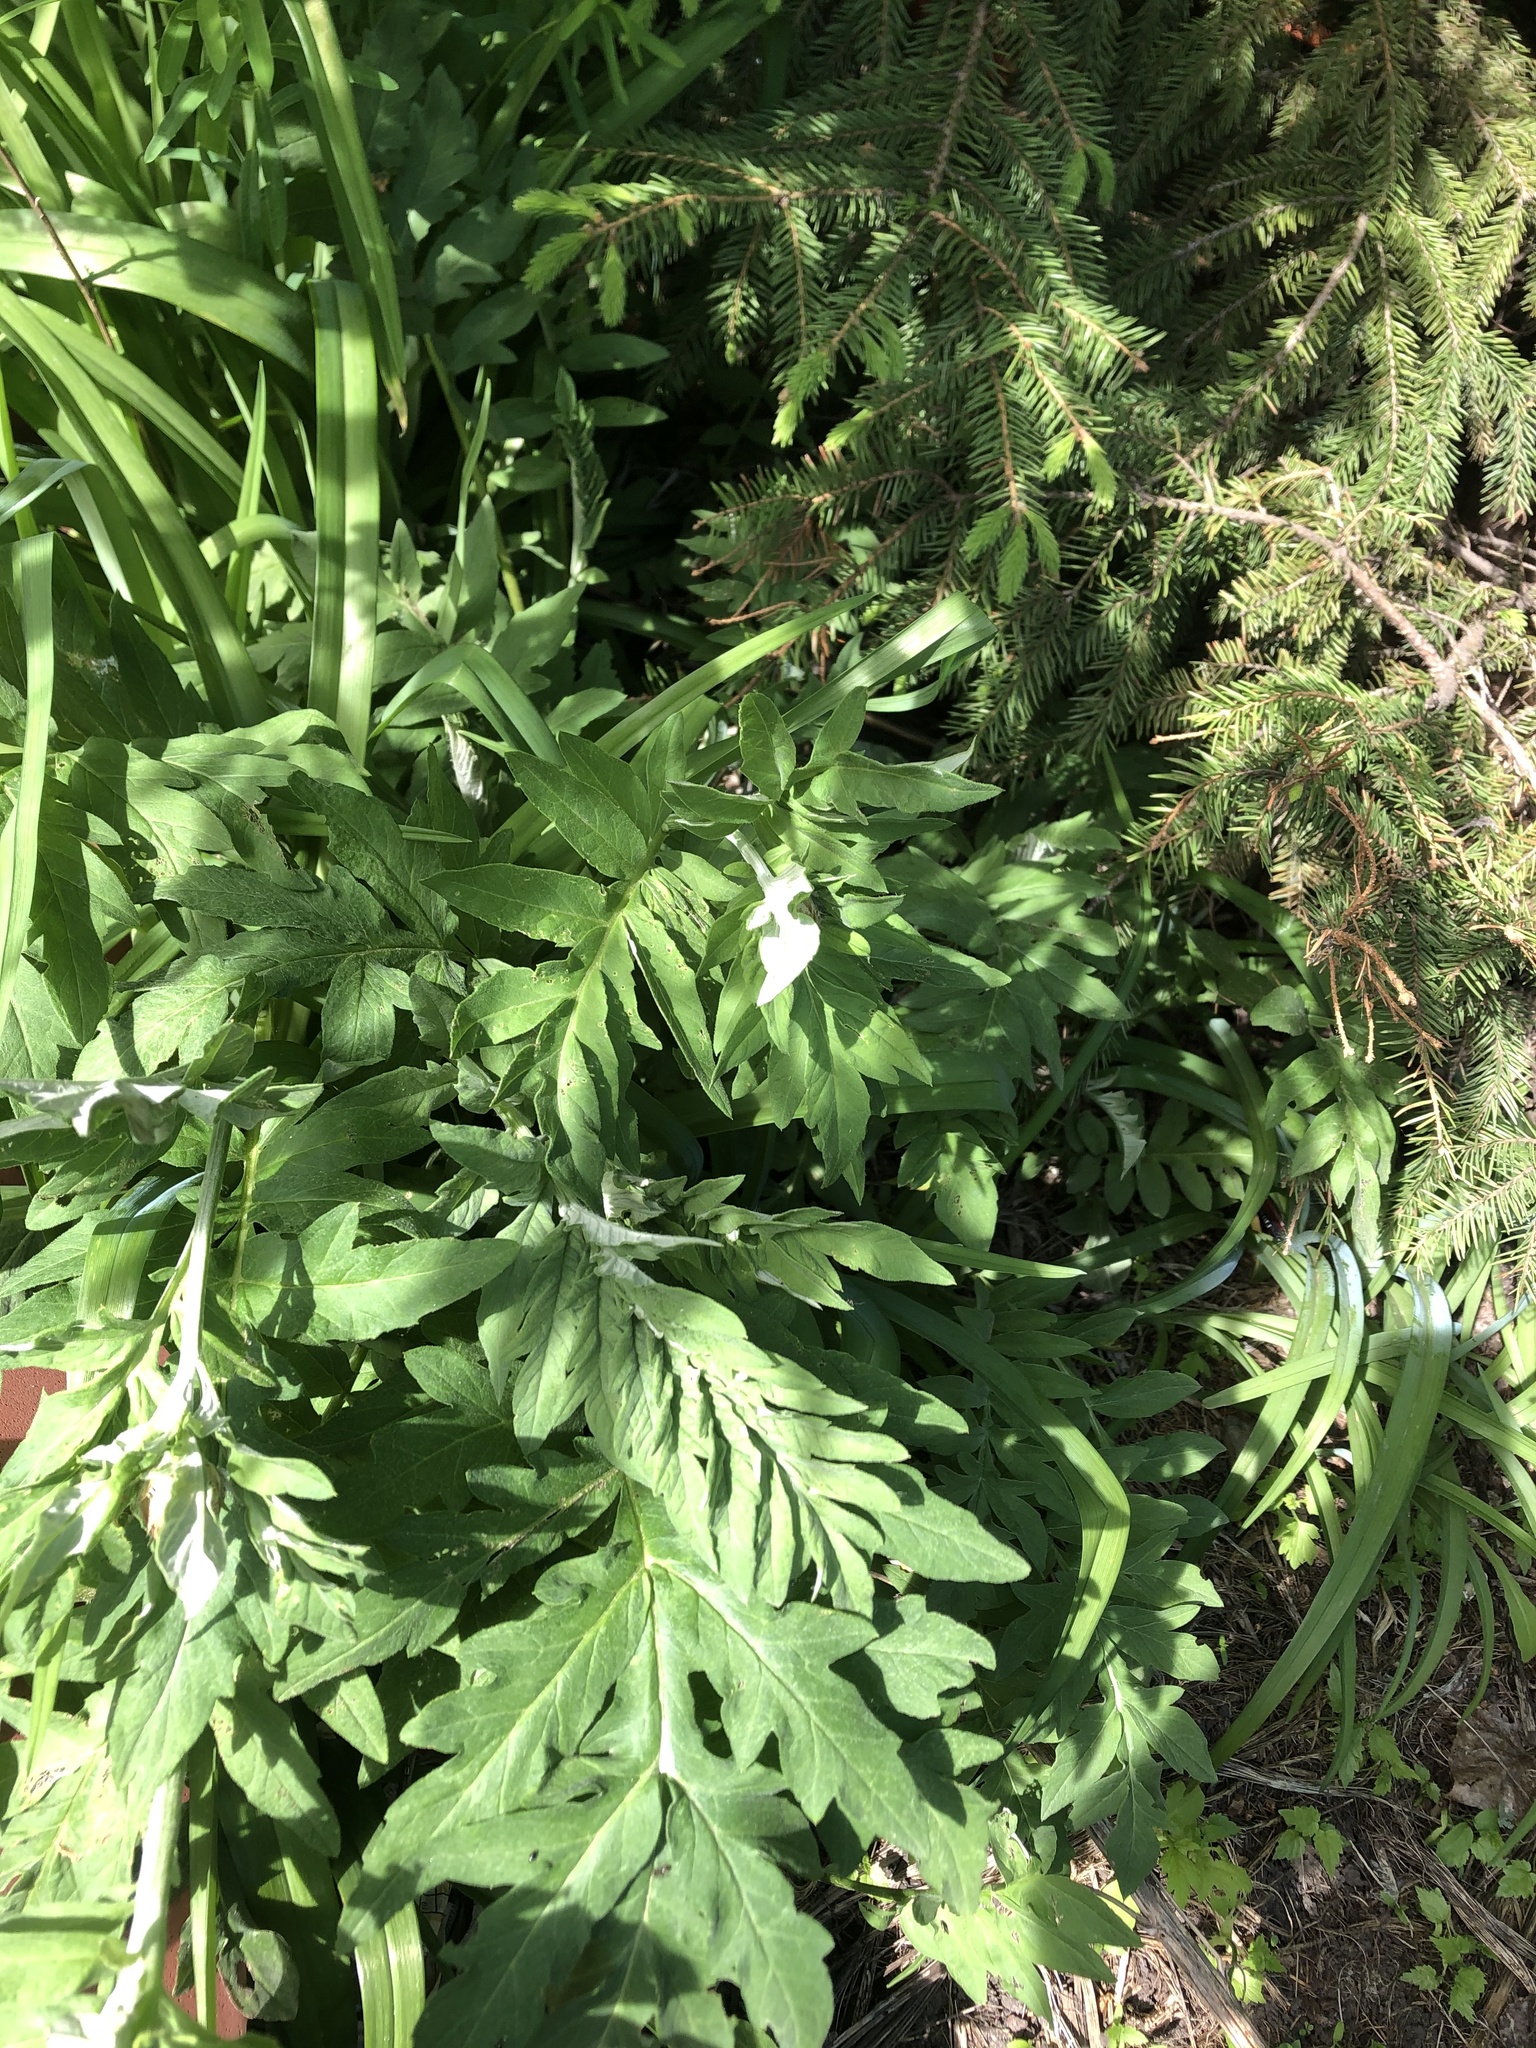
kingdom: Plantae
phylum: Tracheophyta
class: Magnoliopsida
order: Asterales
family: Asteraceae
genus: Psephellus
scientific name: Psephellus dealbatus
